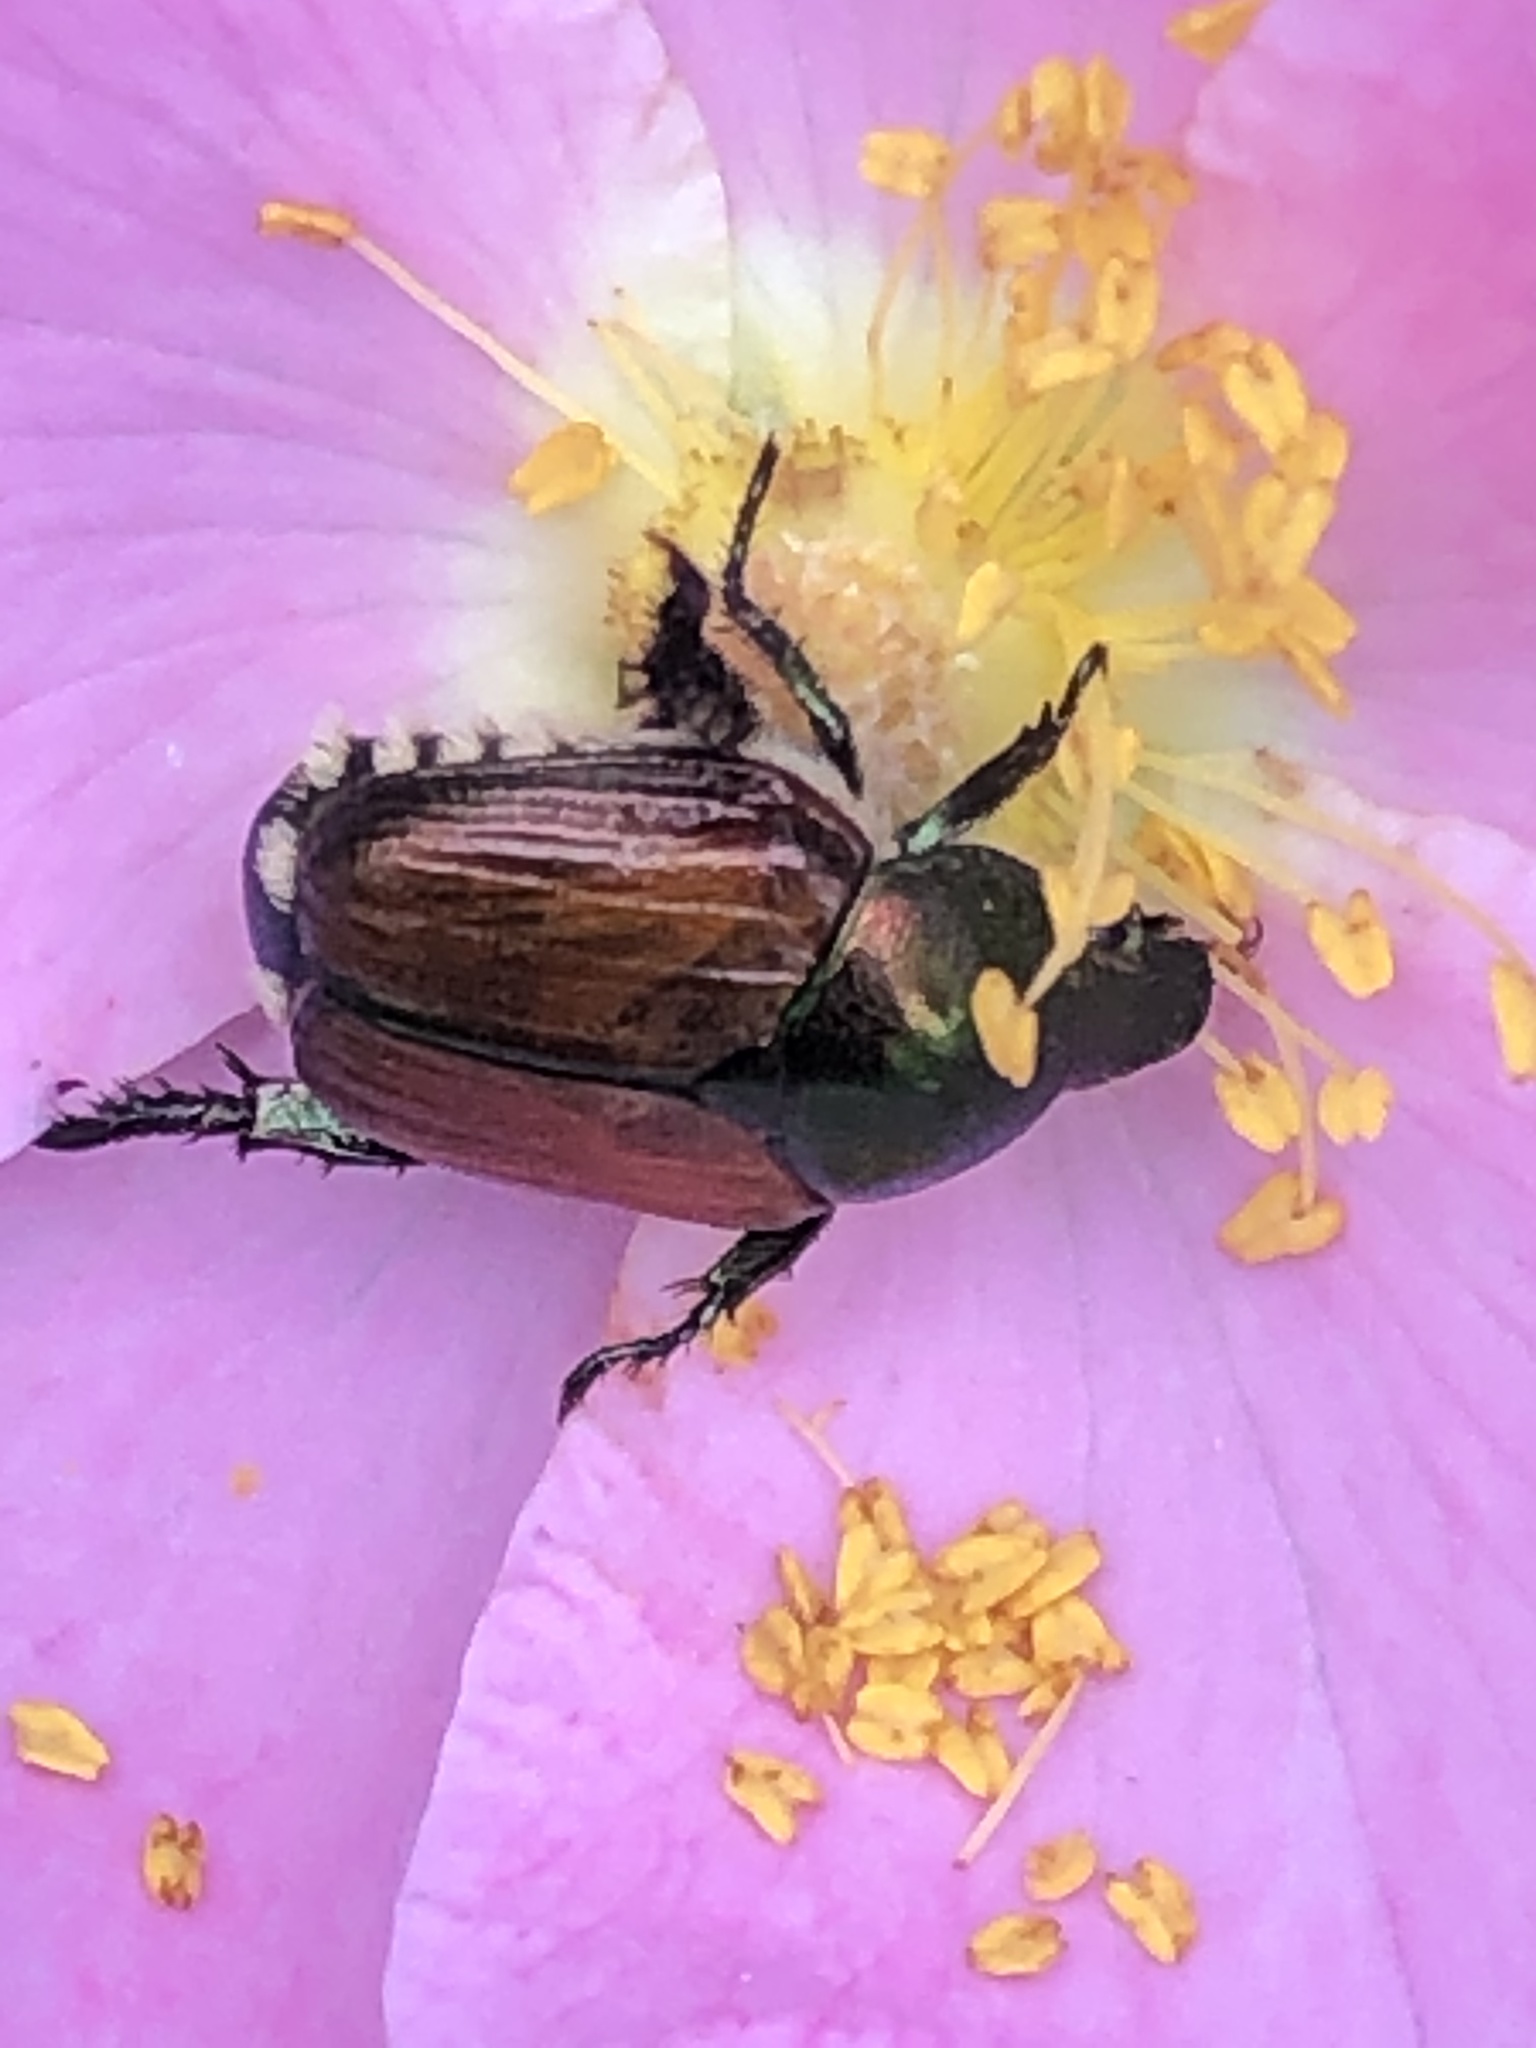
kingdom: Animalia
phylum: Arthropoda
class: Insecta
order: Coleoptera
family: Scarabaeidae
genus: Popillia
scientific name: Popillia japonica
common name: Japanese beetle
